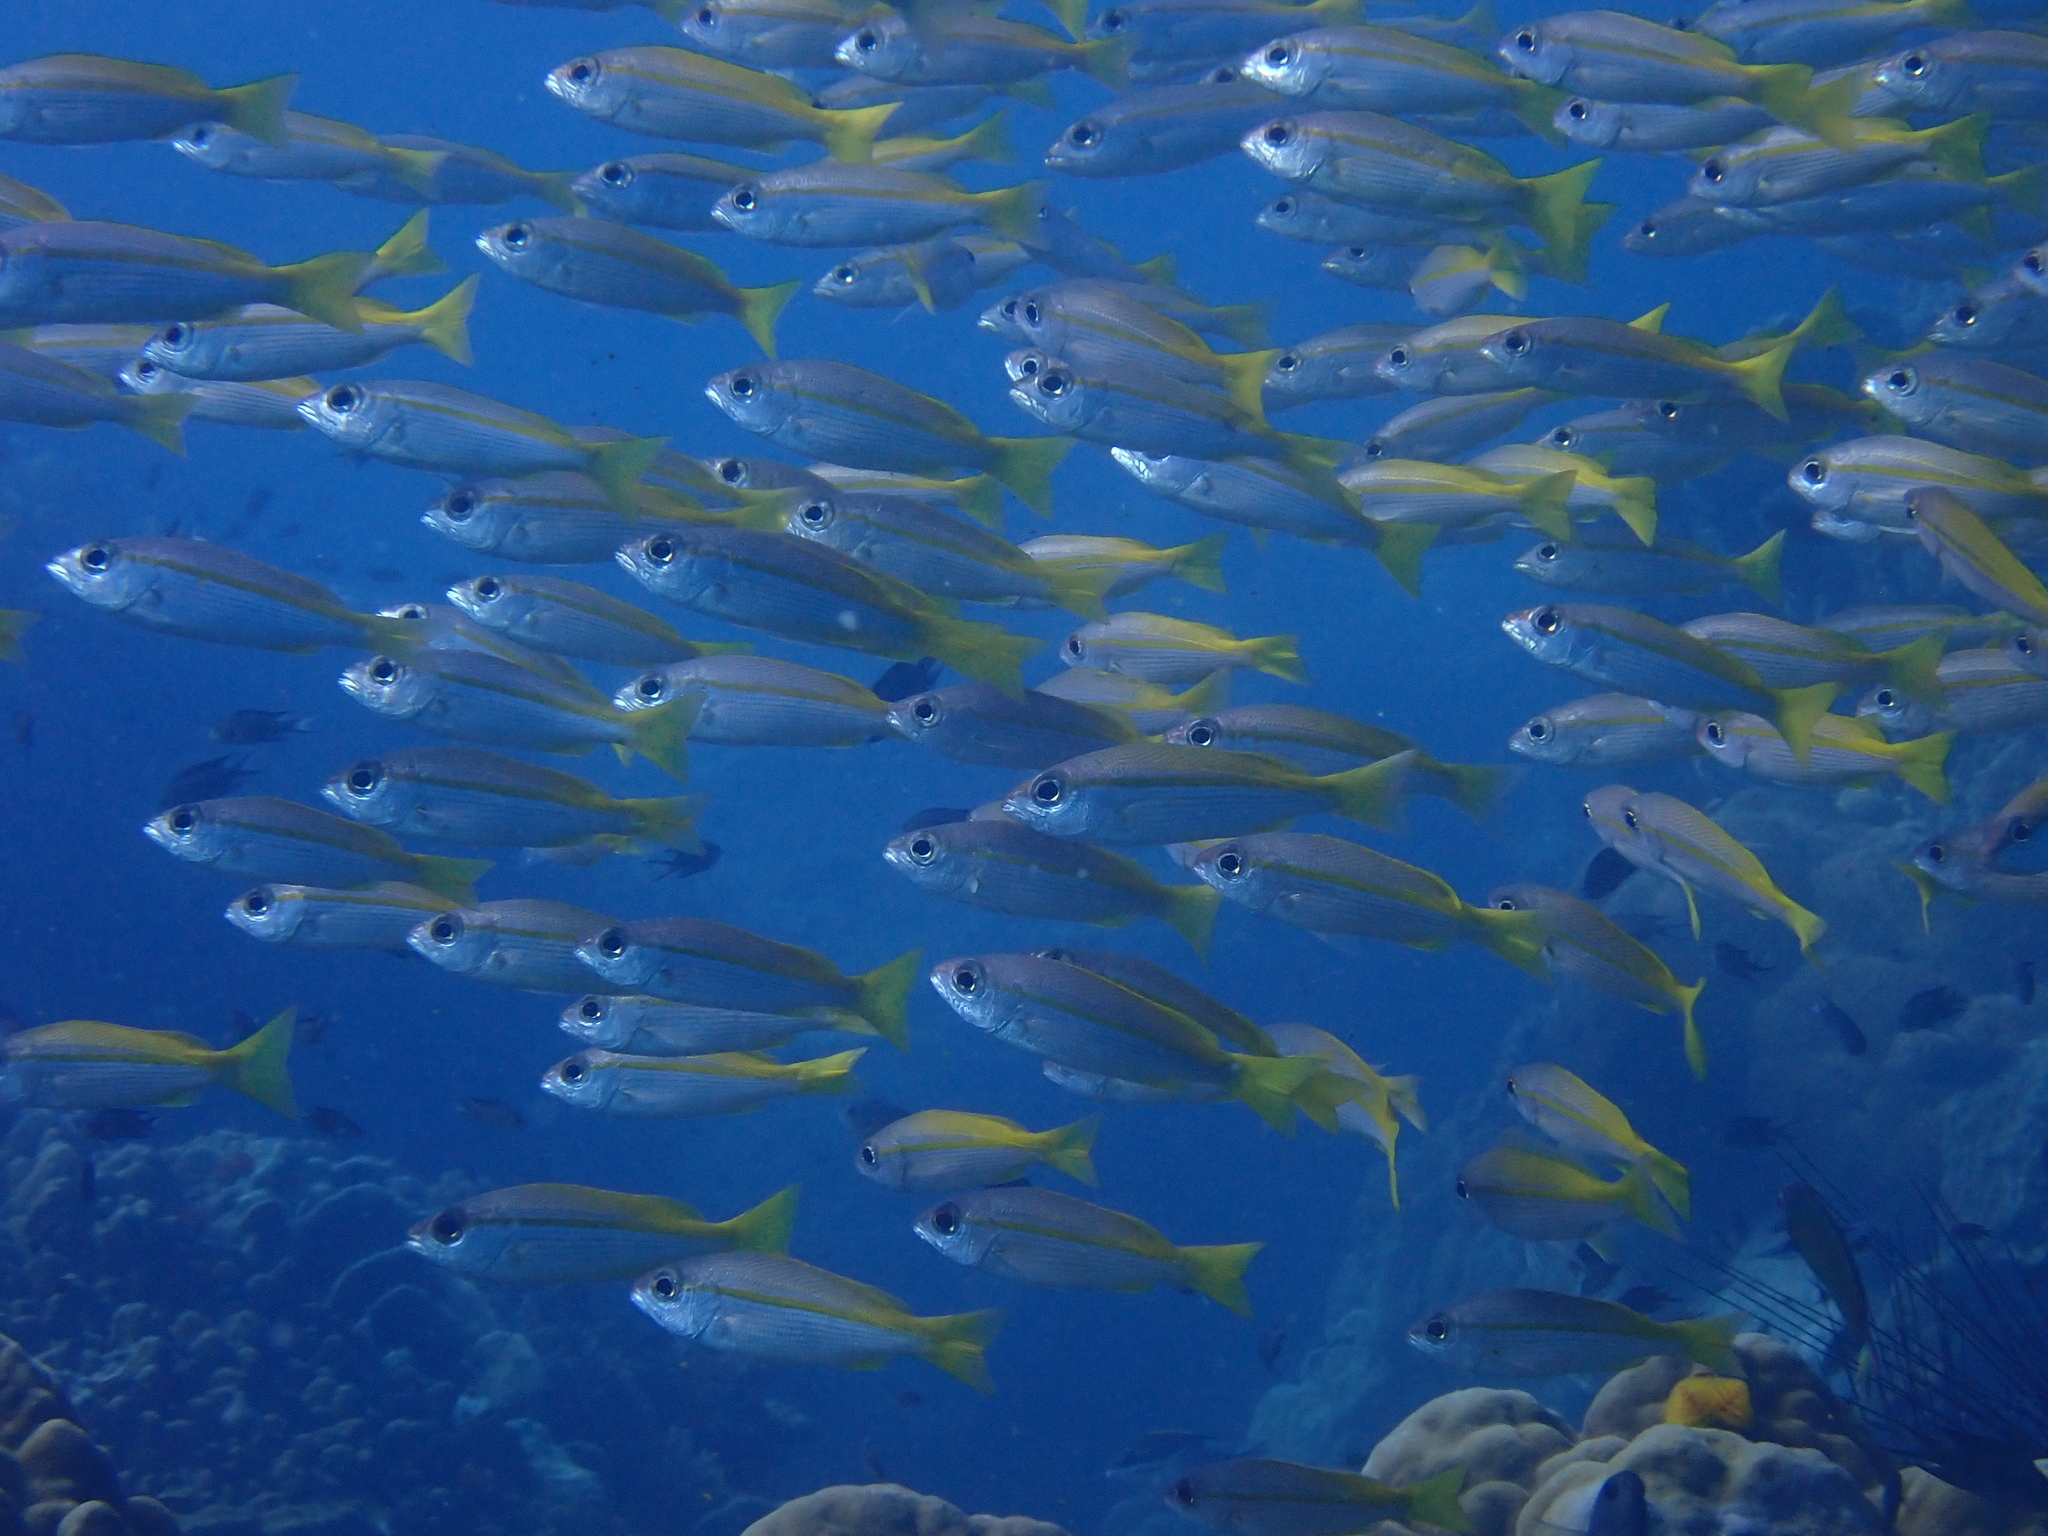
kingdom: Animalia
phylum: Chordata
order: Perciformes
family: Lutjanidae
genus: Lutjanus
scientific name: Lutjanus lutjanus
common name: Bigeye snapper
